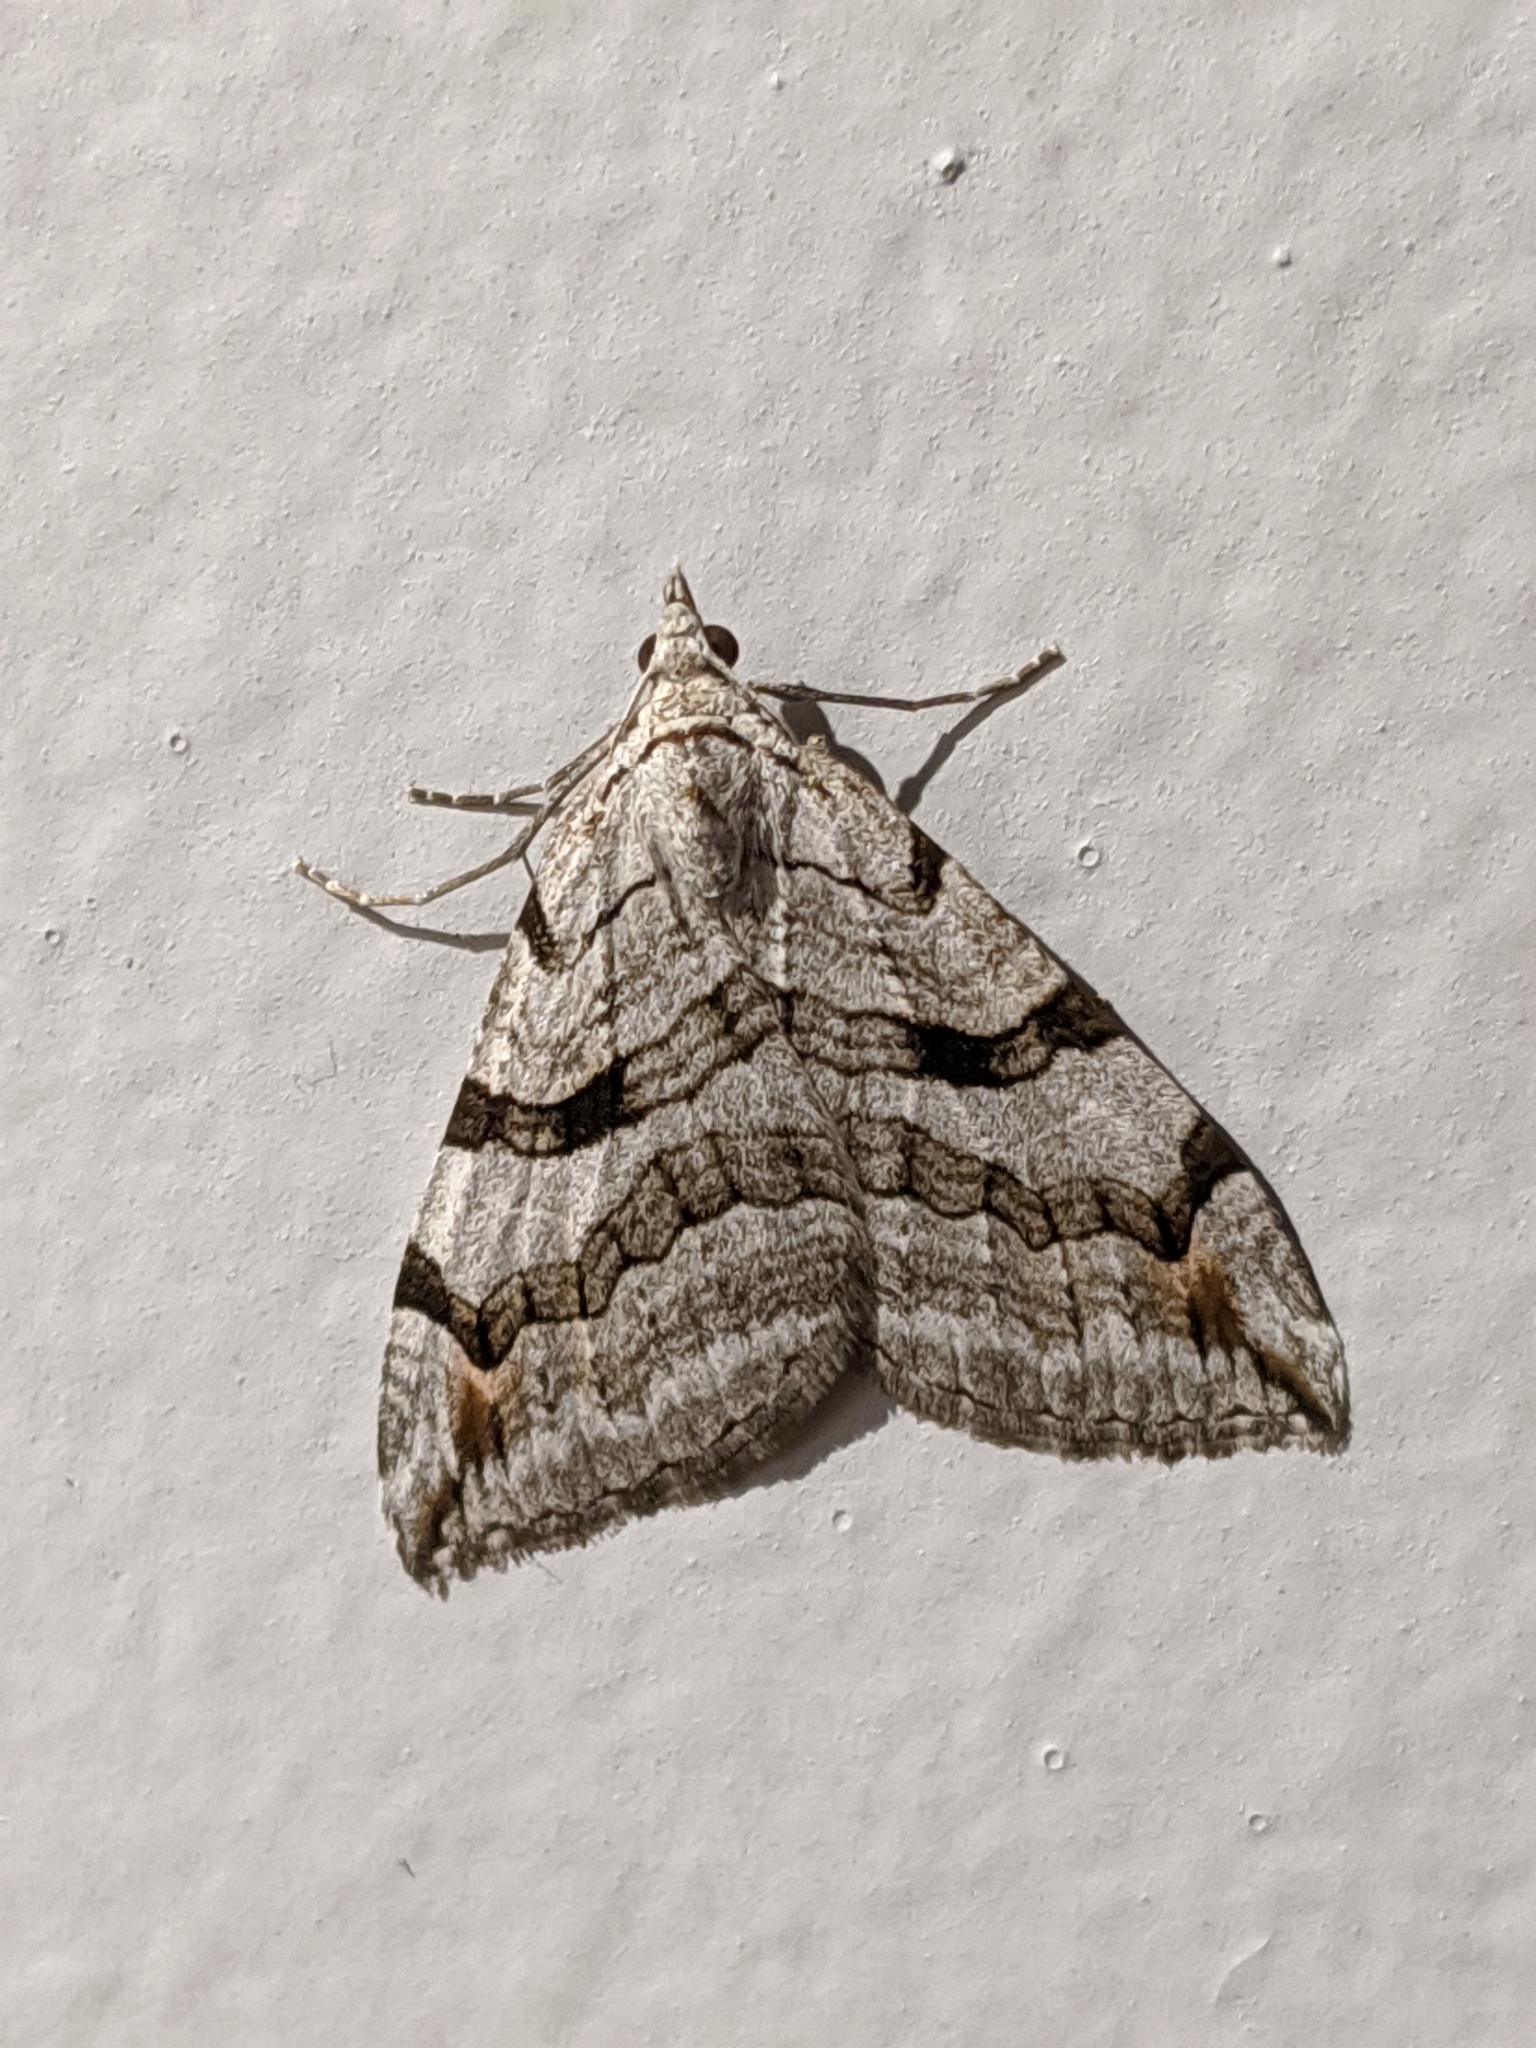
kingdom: Animalia
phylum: Arthropoda
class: Insecta
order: Lepidoptera
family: Geometridae
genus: Aplocera
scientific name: Aplocera plagiata
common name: Treble-bar
